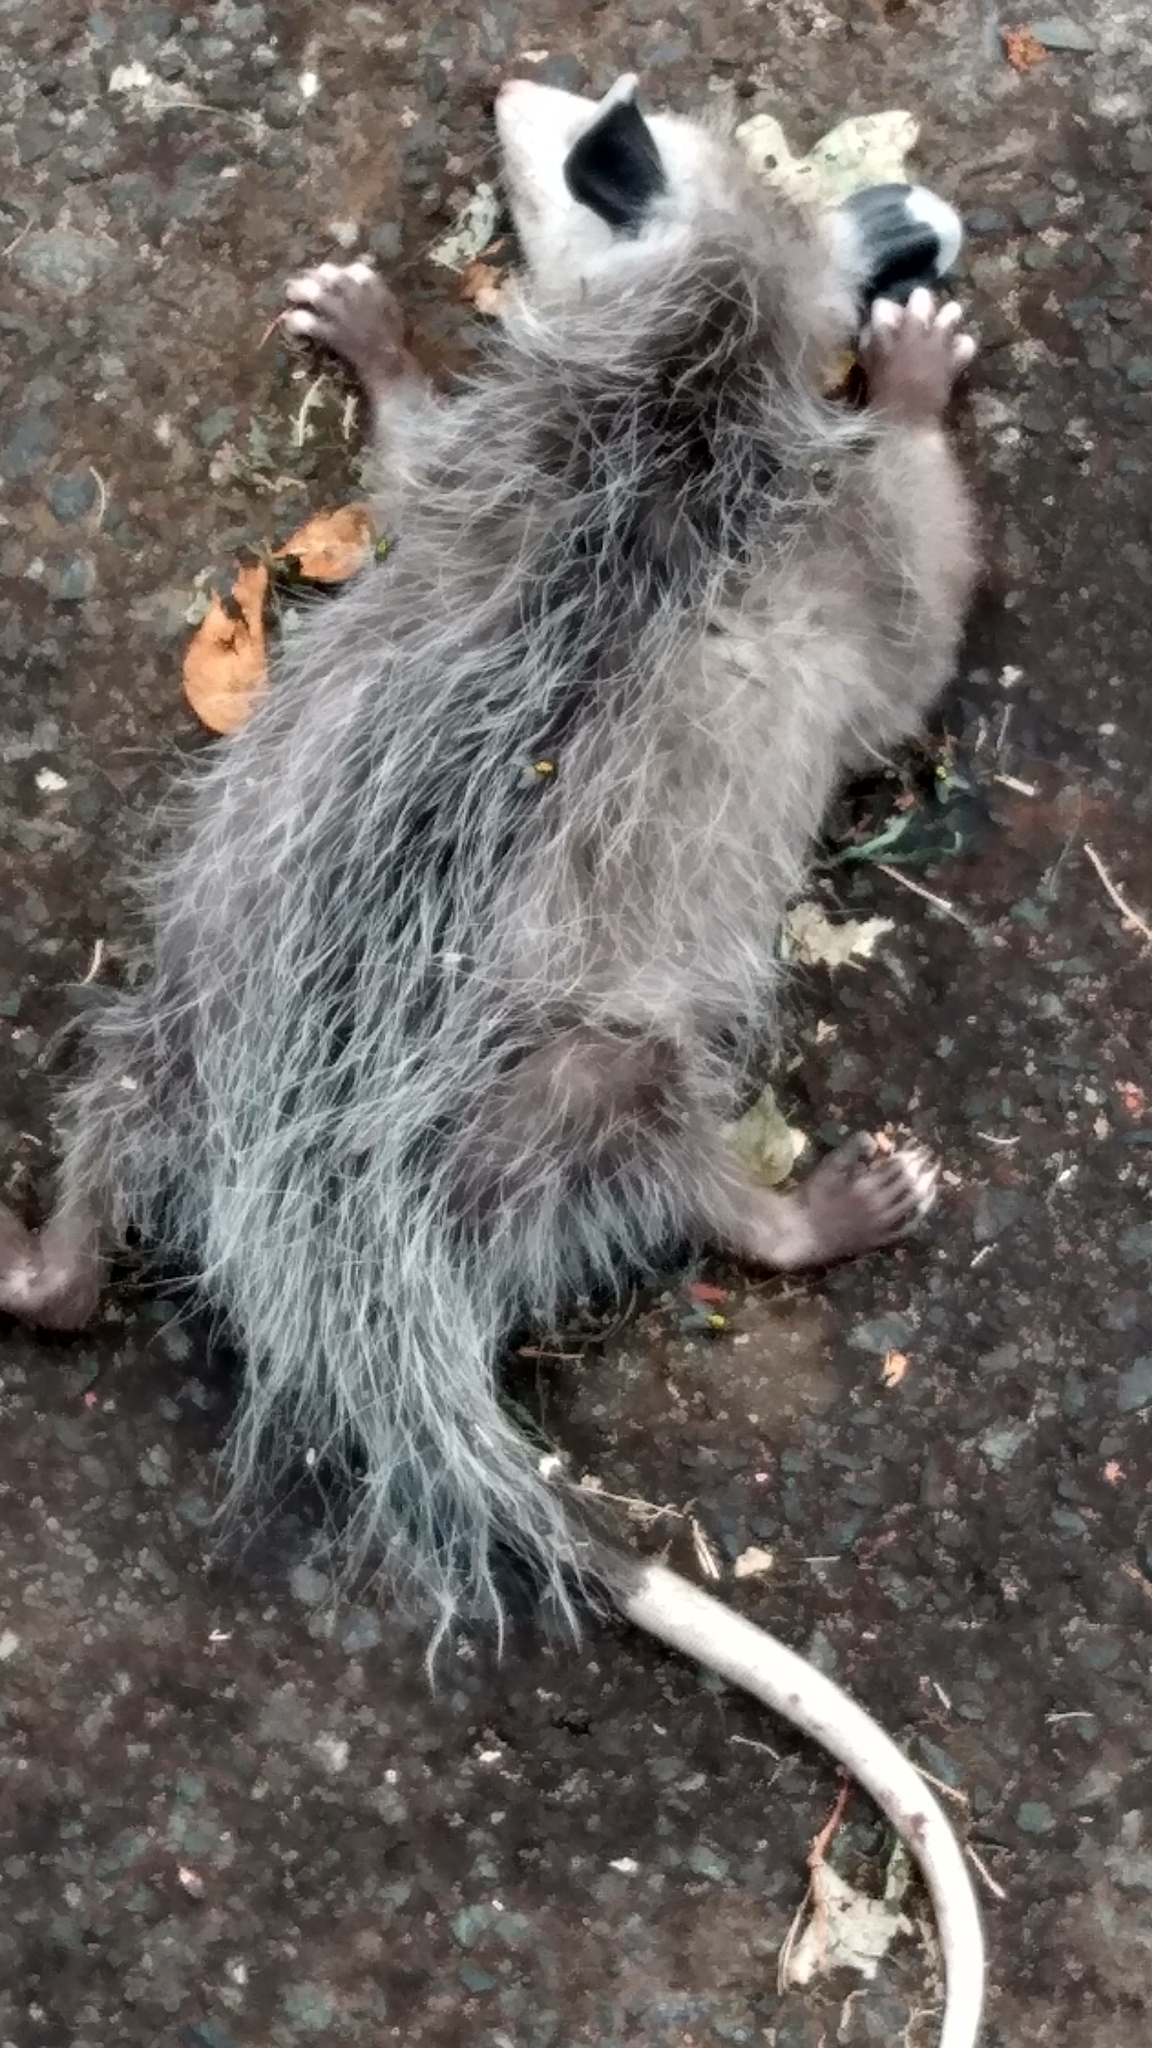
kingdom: Animalia
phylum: Chordata
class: Mammalia
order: Didelphimorphia
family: Didelphidae
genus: Didelphis
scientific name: Didelphis virginiana
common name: Virginia opossum
